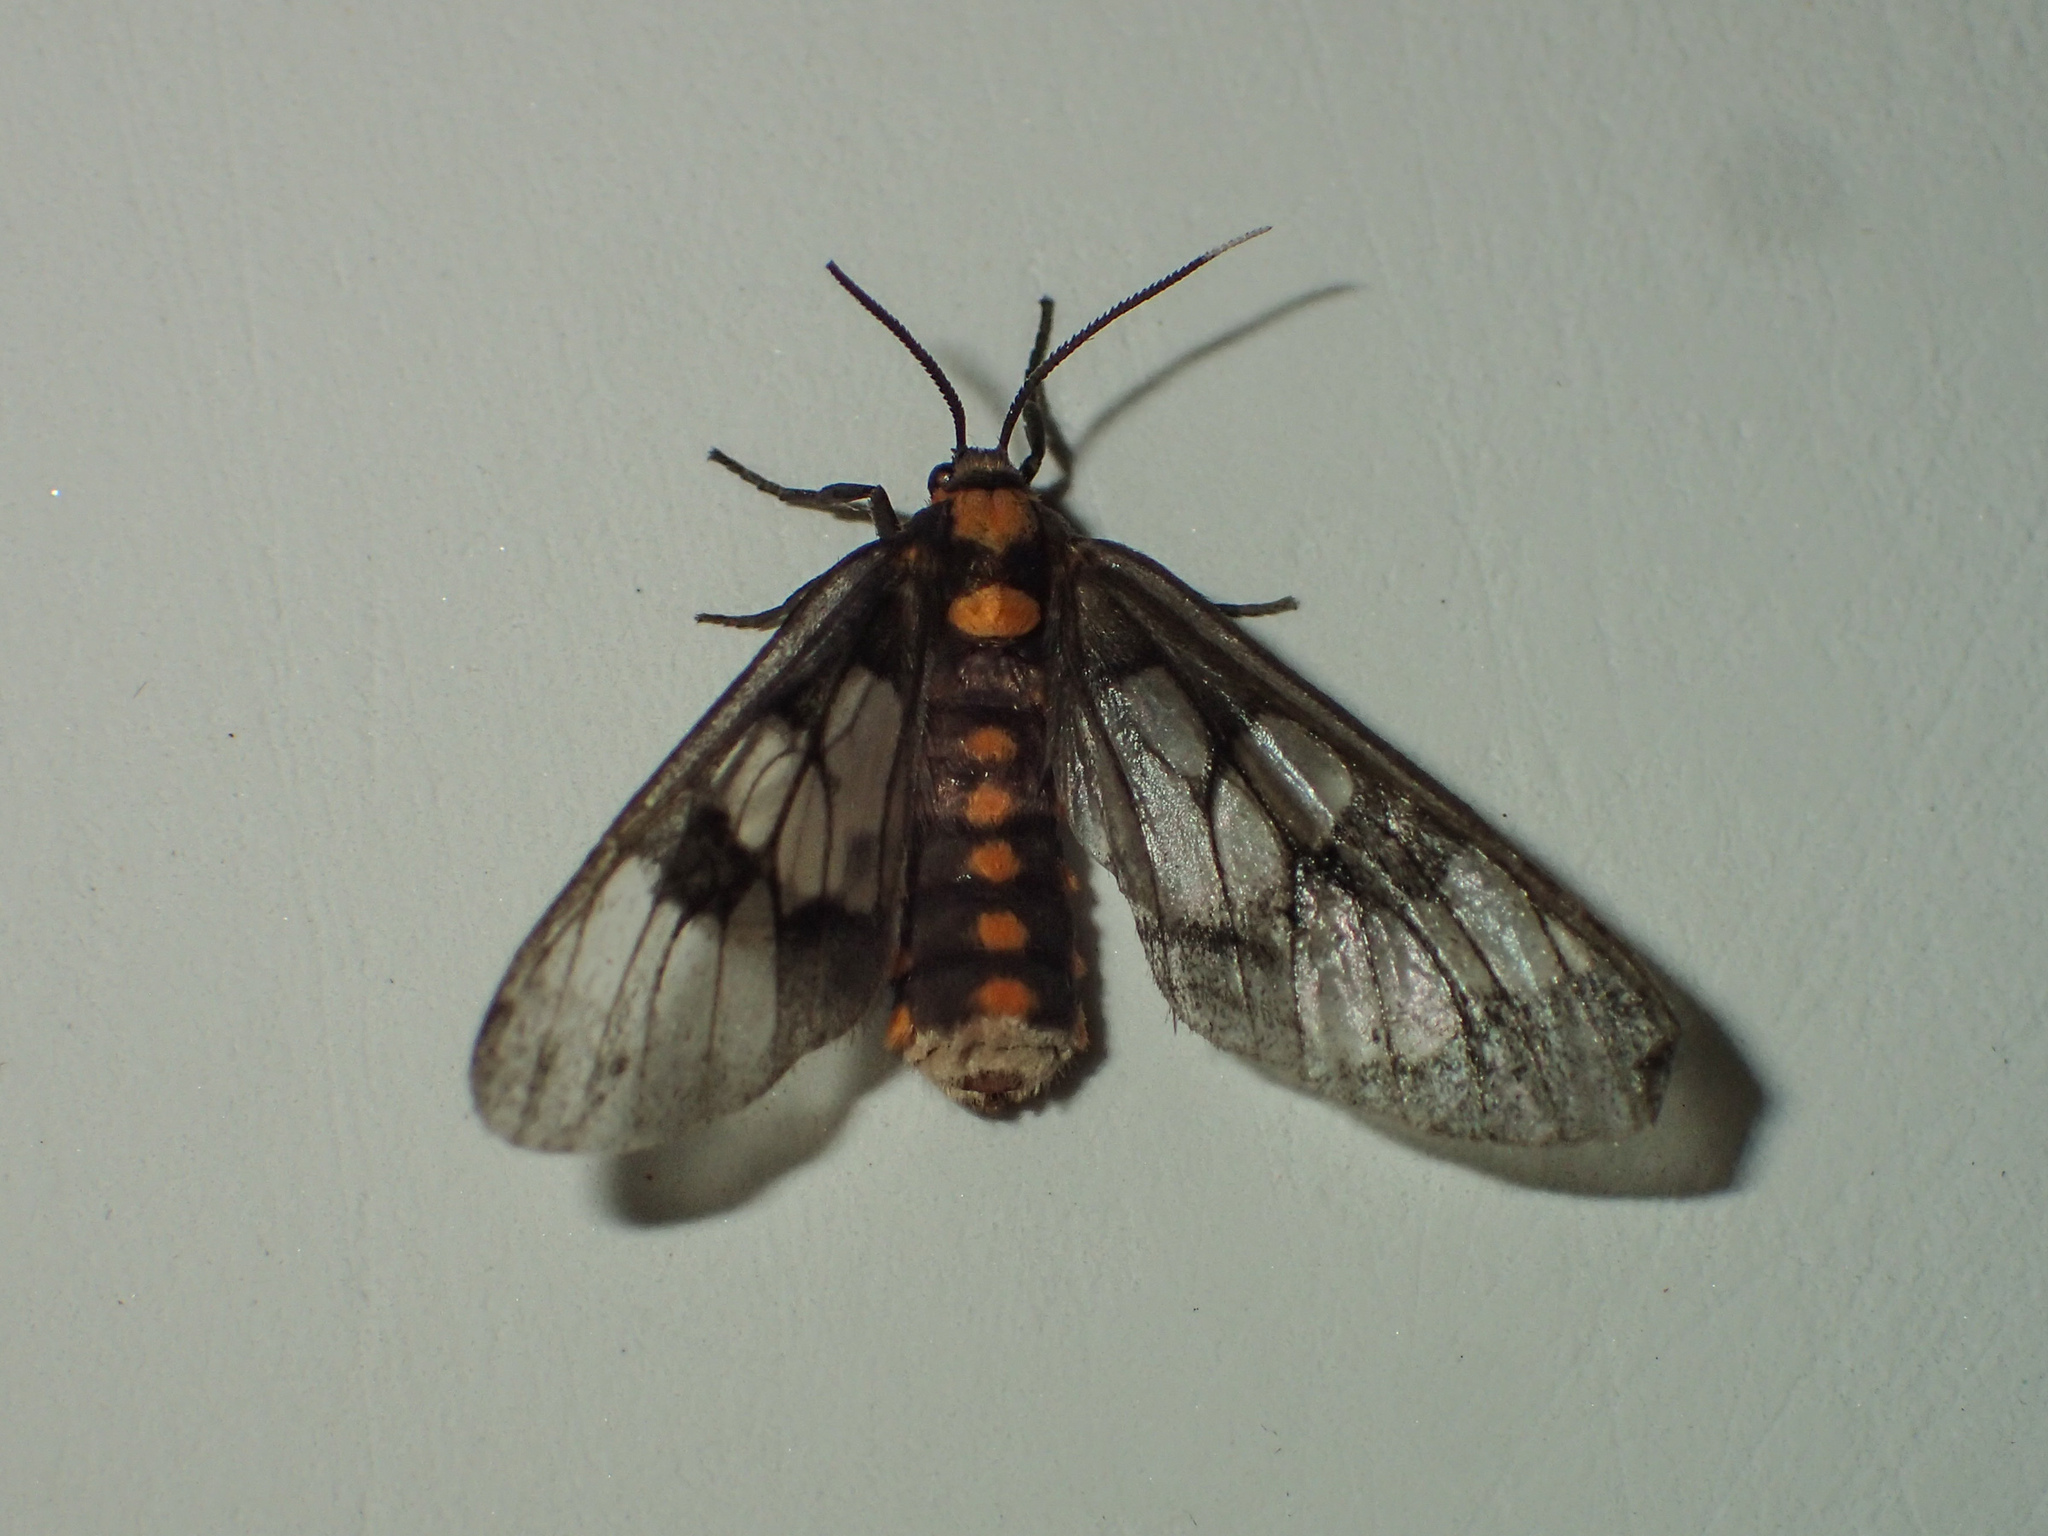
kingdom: Animalia
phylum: Arthropoda
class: Insecta
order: Lepidoptera
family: Erebidae
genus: Eressa
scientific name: Eressa confinis
